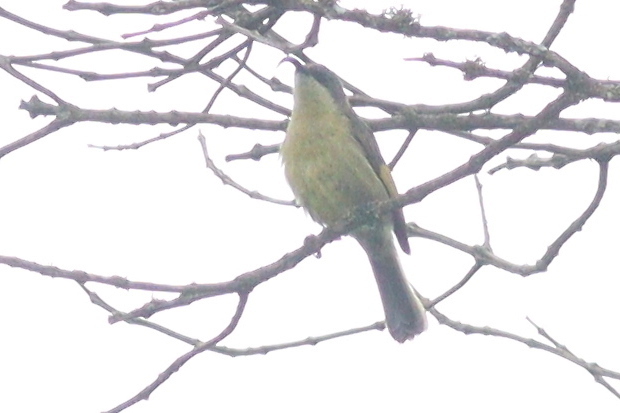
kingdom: Animalia
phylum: Chordata
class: Aves
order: Passeriformes
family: Nectariniidae
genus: Drepanorhynchus
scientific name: Drepanorhynchus reichenowi
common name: Golden-winged sunbird
